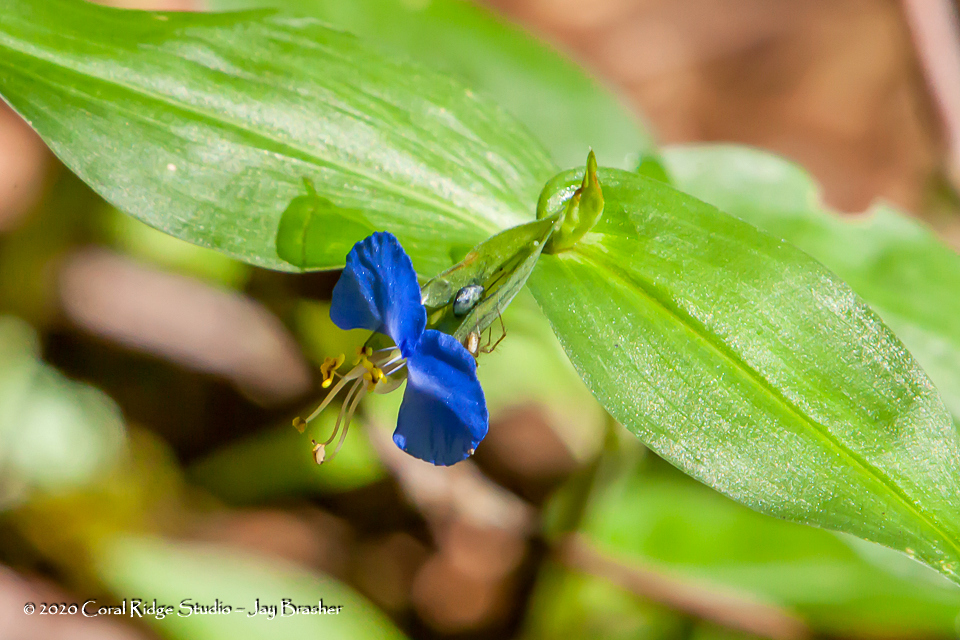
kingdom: Plantae
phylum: Tracheophyta
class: Liliopsida
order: Commelinales
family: Commelinaceae
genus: Commelina
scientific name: Commelina communis
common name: Asiatic dayflower
